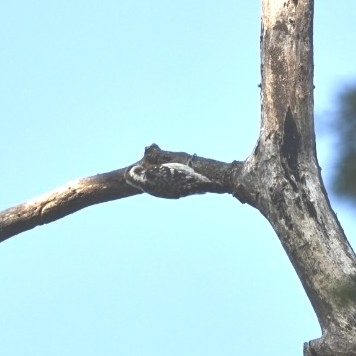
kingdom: Animalia
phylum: Chordata
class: Aves
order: Piciformes
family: Picidae
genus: Yungipicus
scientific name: Yungipicus nanus
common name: Brown-capped pygmy woodpecker
